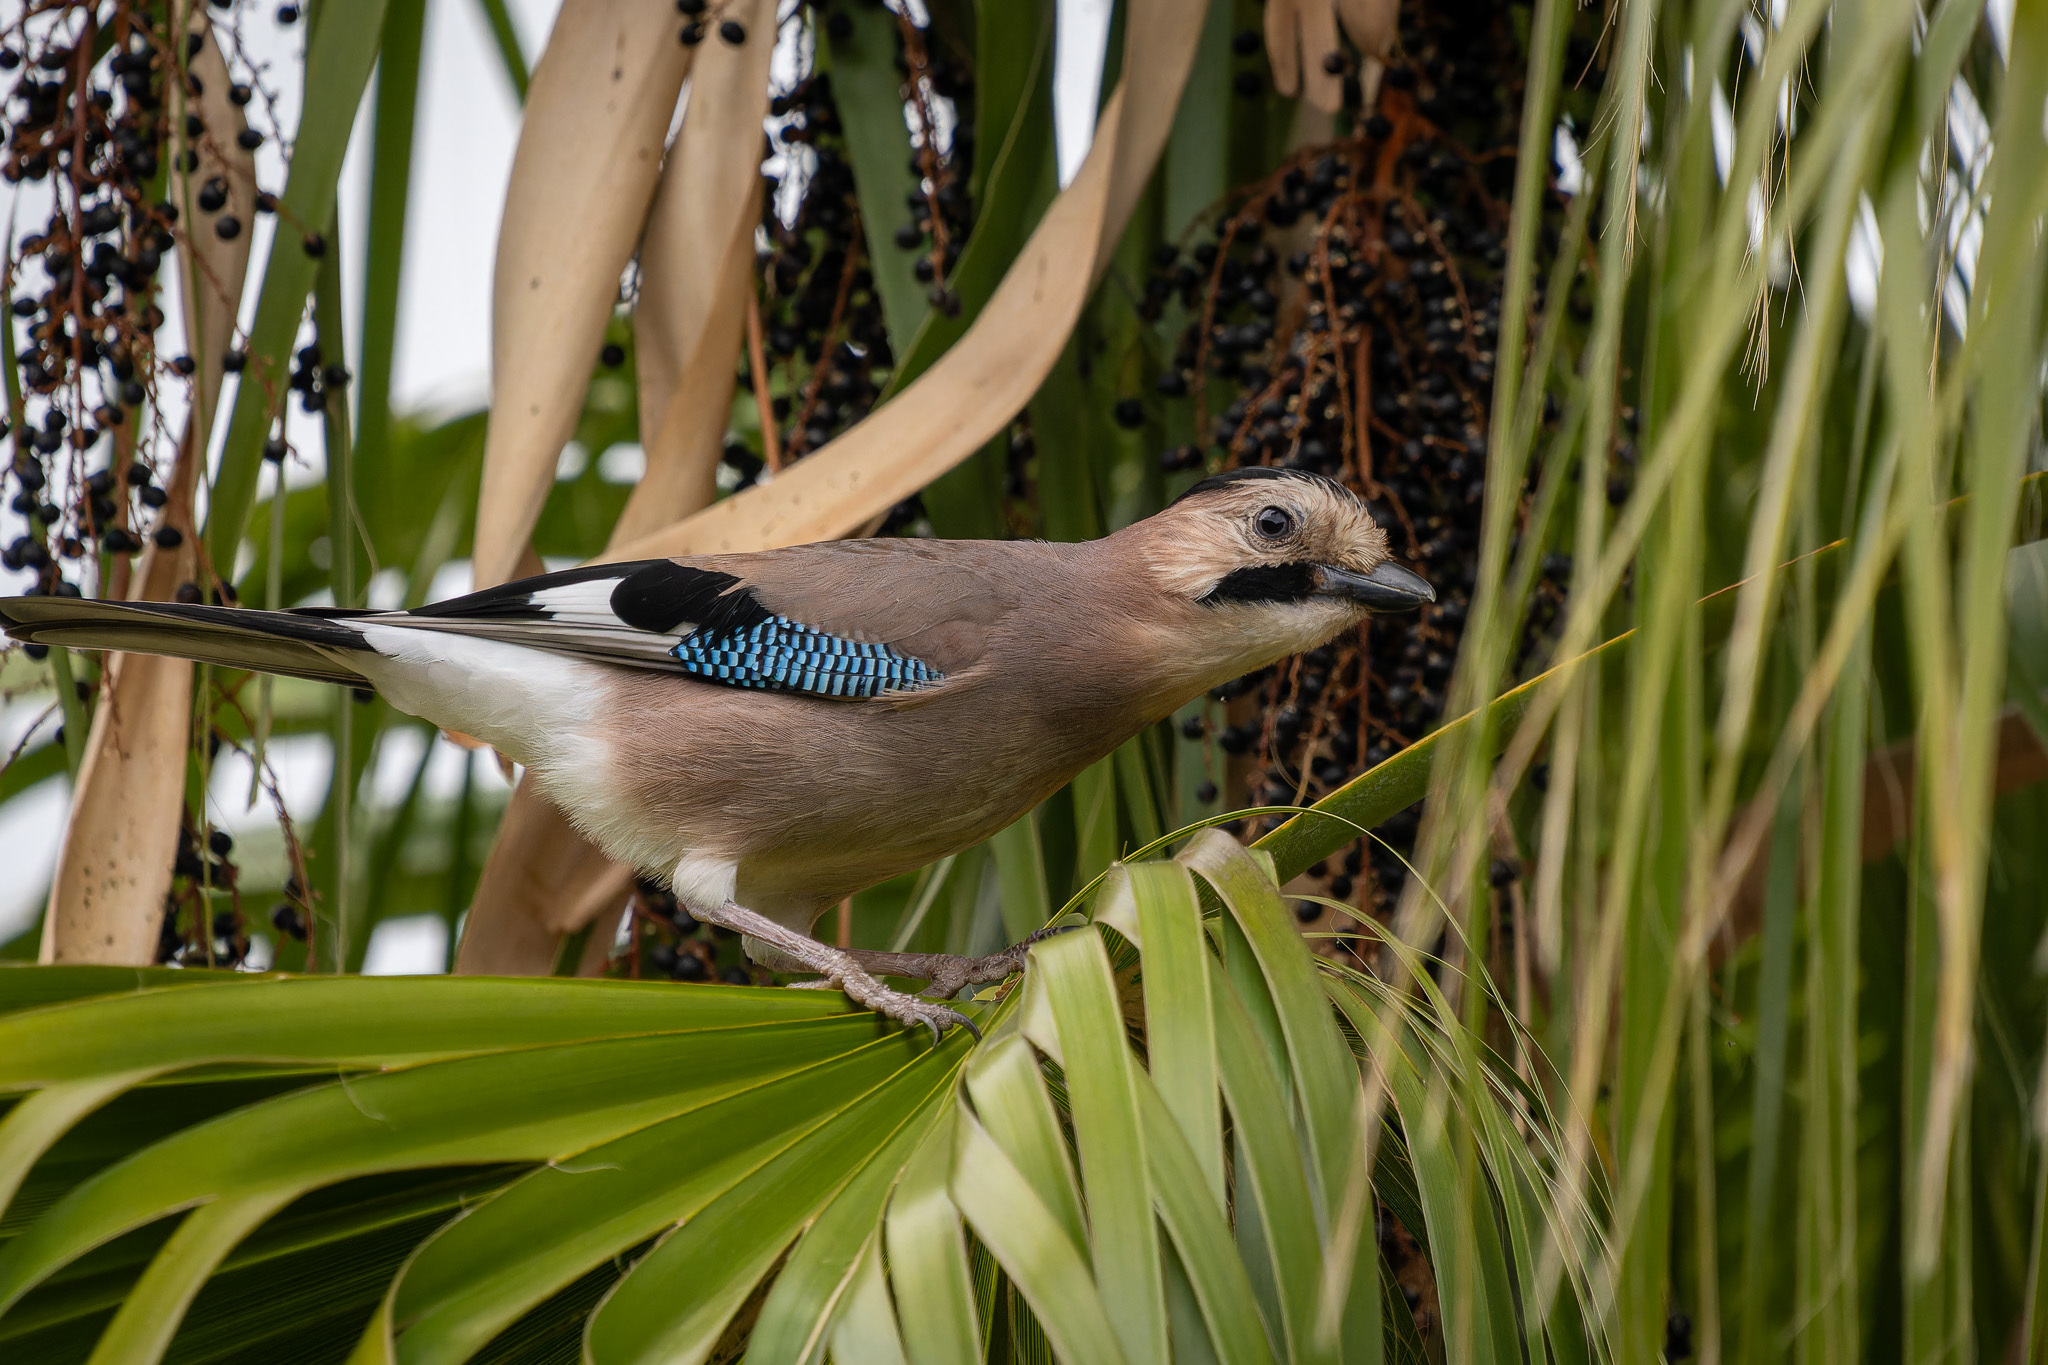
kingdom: Animalia
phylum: Chordata
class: Aves
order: Passeriformes
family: Corvidae
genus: Garrulus
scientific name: Garrulus glandarius
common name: Eurasian jay
